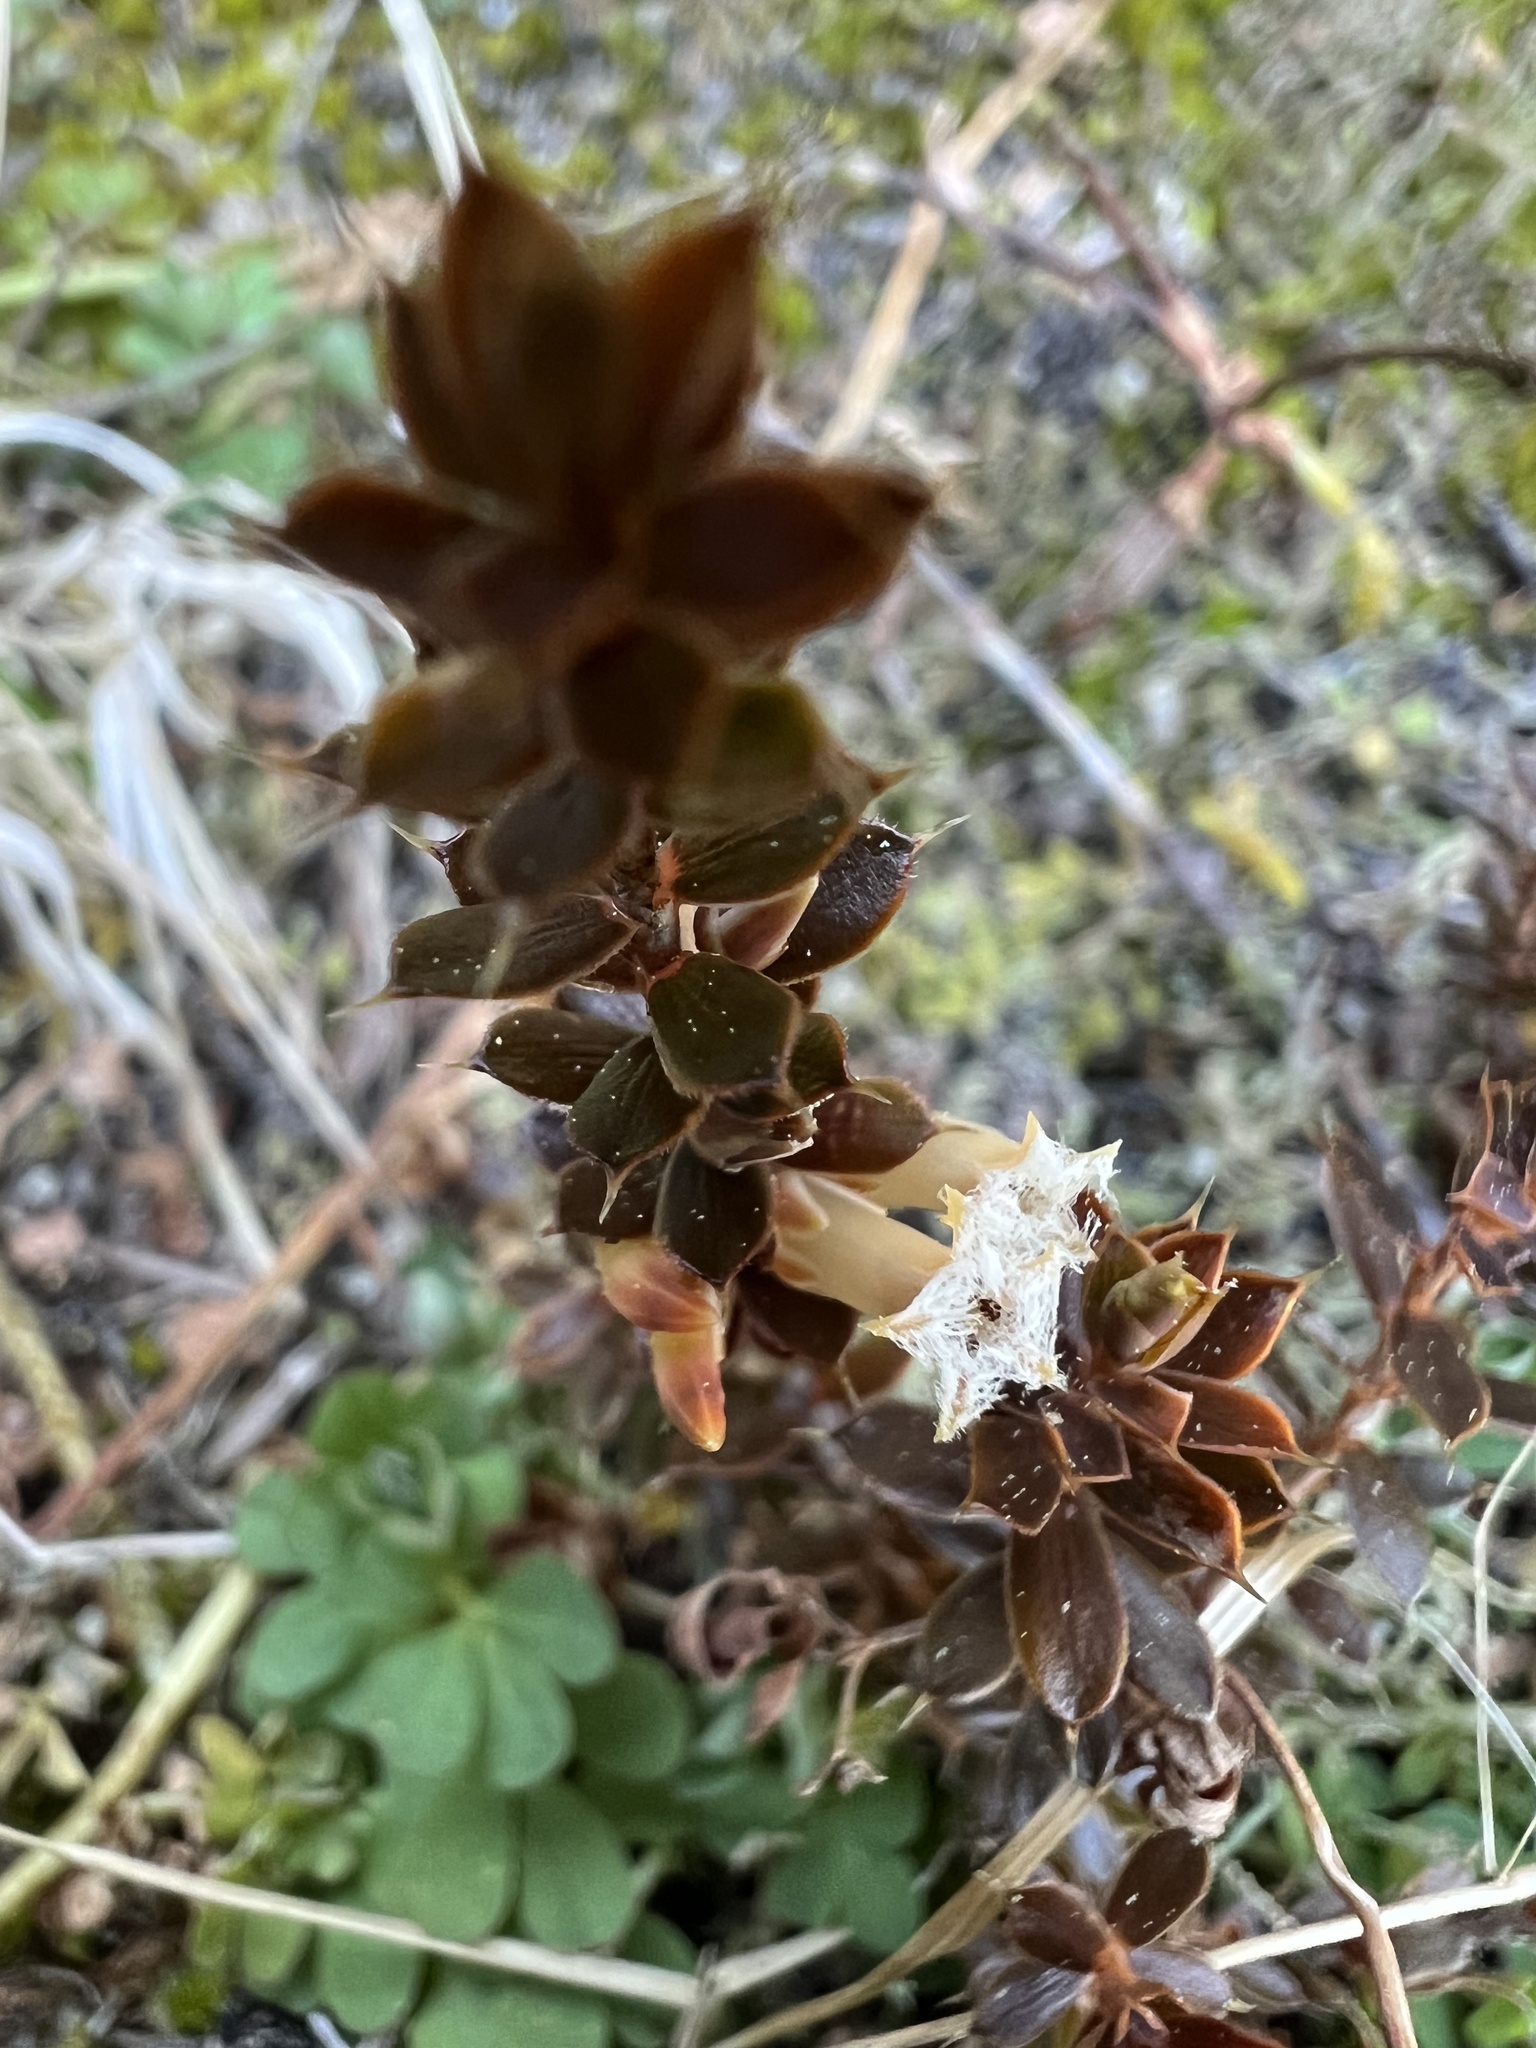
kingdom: Plantae
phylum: Tracheophyta
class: Magnoliopsida
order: Ericales
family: Ericaceae
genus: Styphelia
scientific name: Styphelia nesophila
